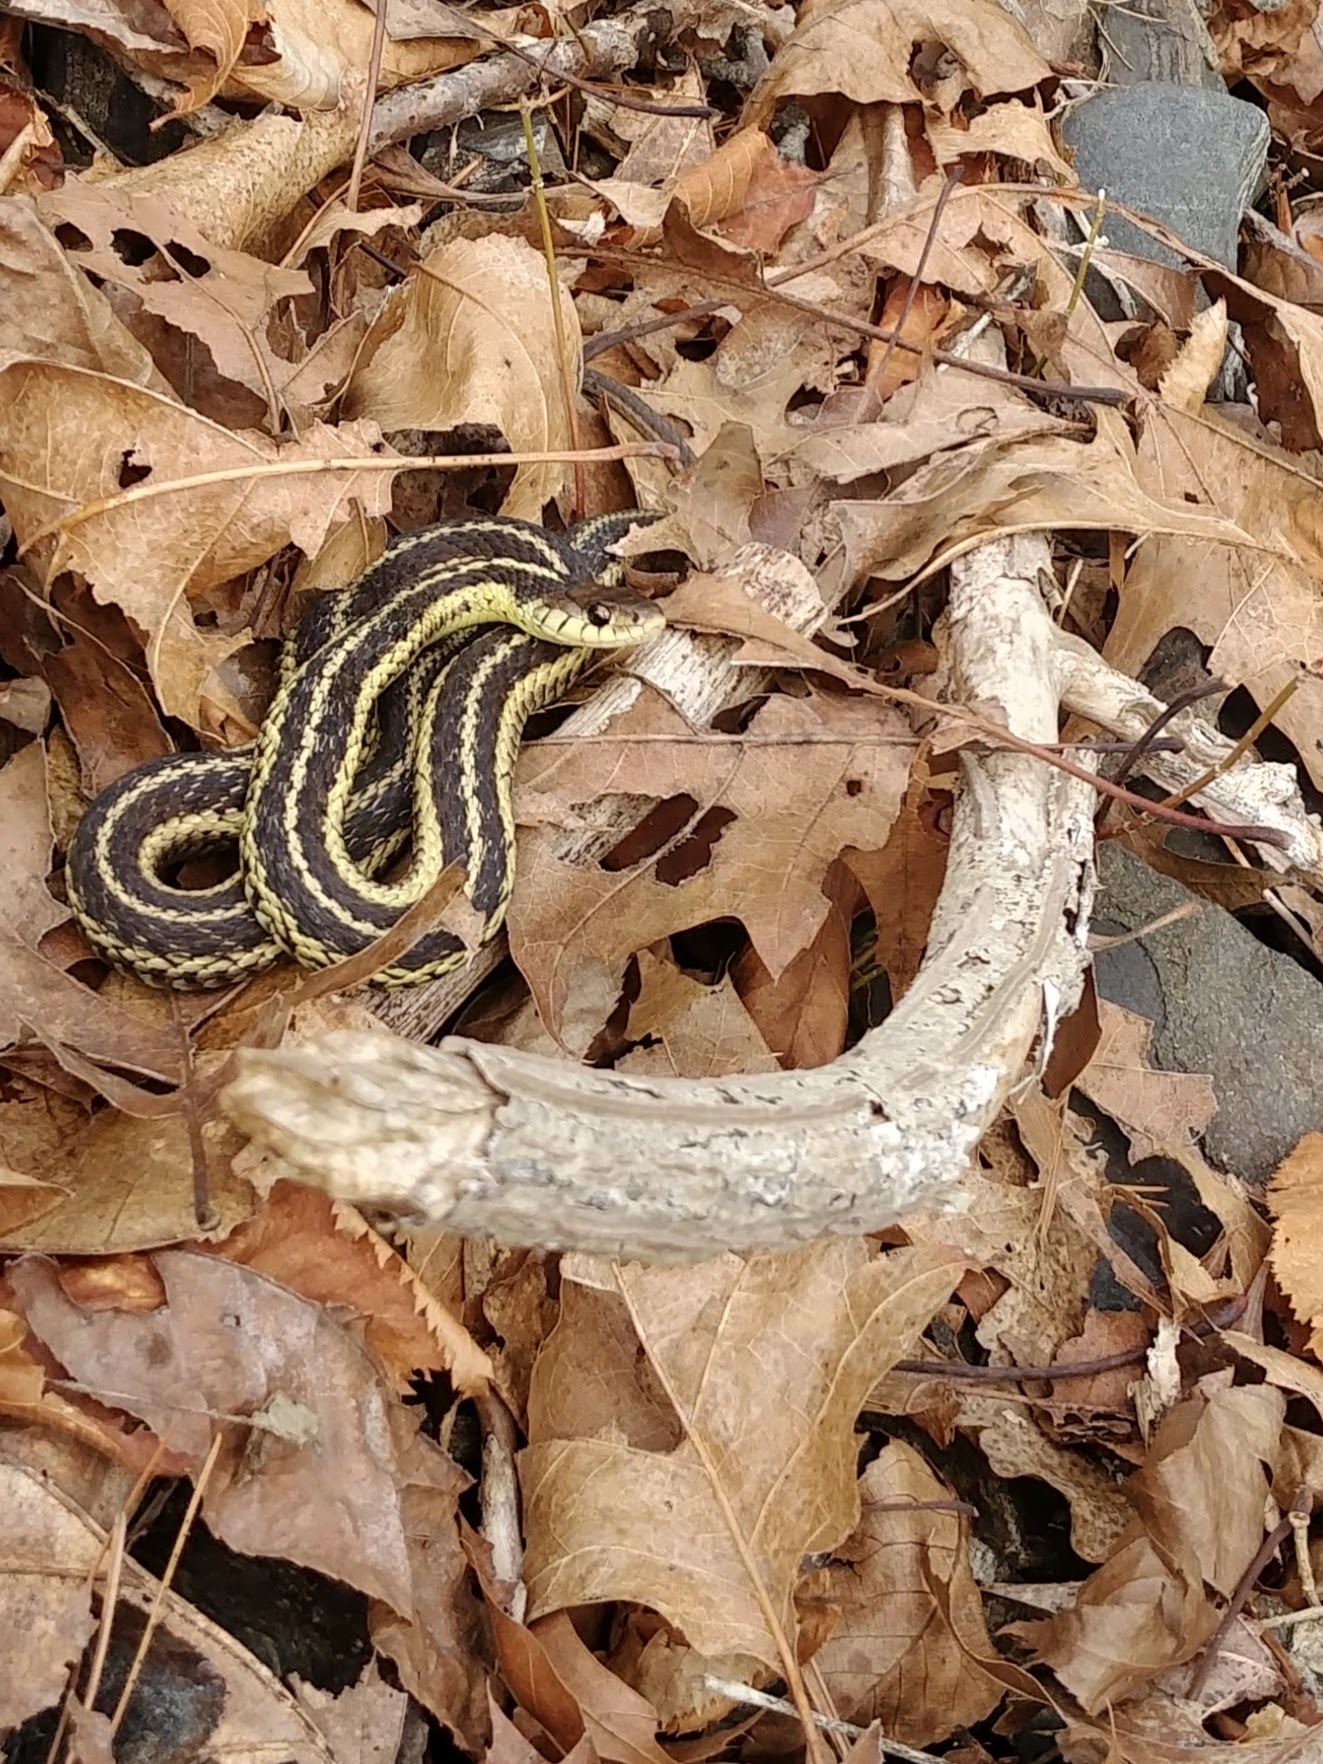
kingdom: Animalia
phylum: Chordata
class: Squamata
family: Colubridae
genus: Thamnophis
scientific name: Thamnophis sirtalis
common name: Common garter snake
